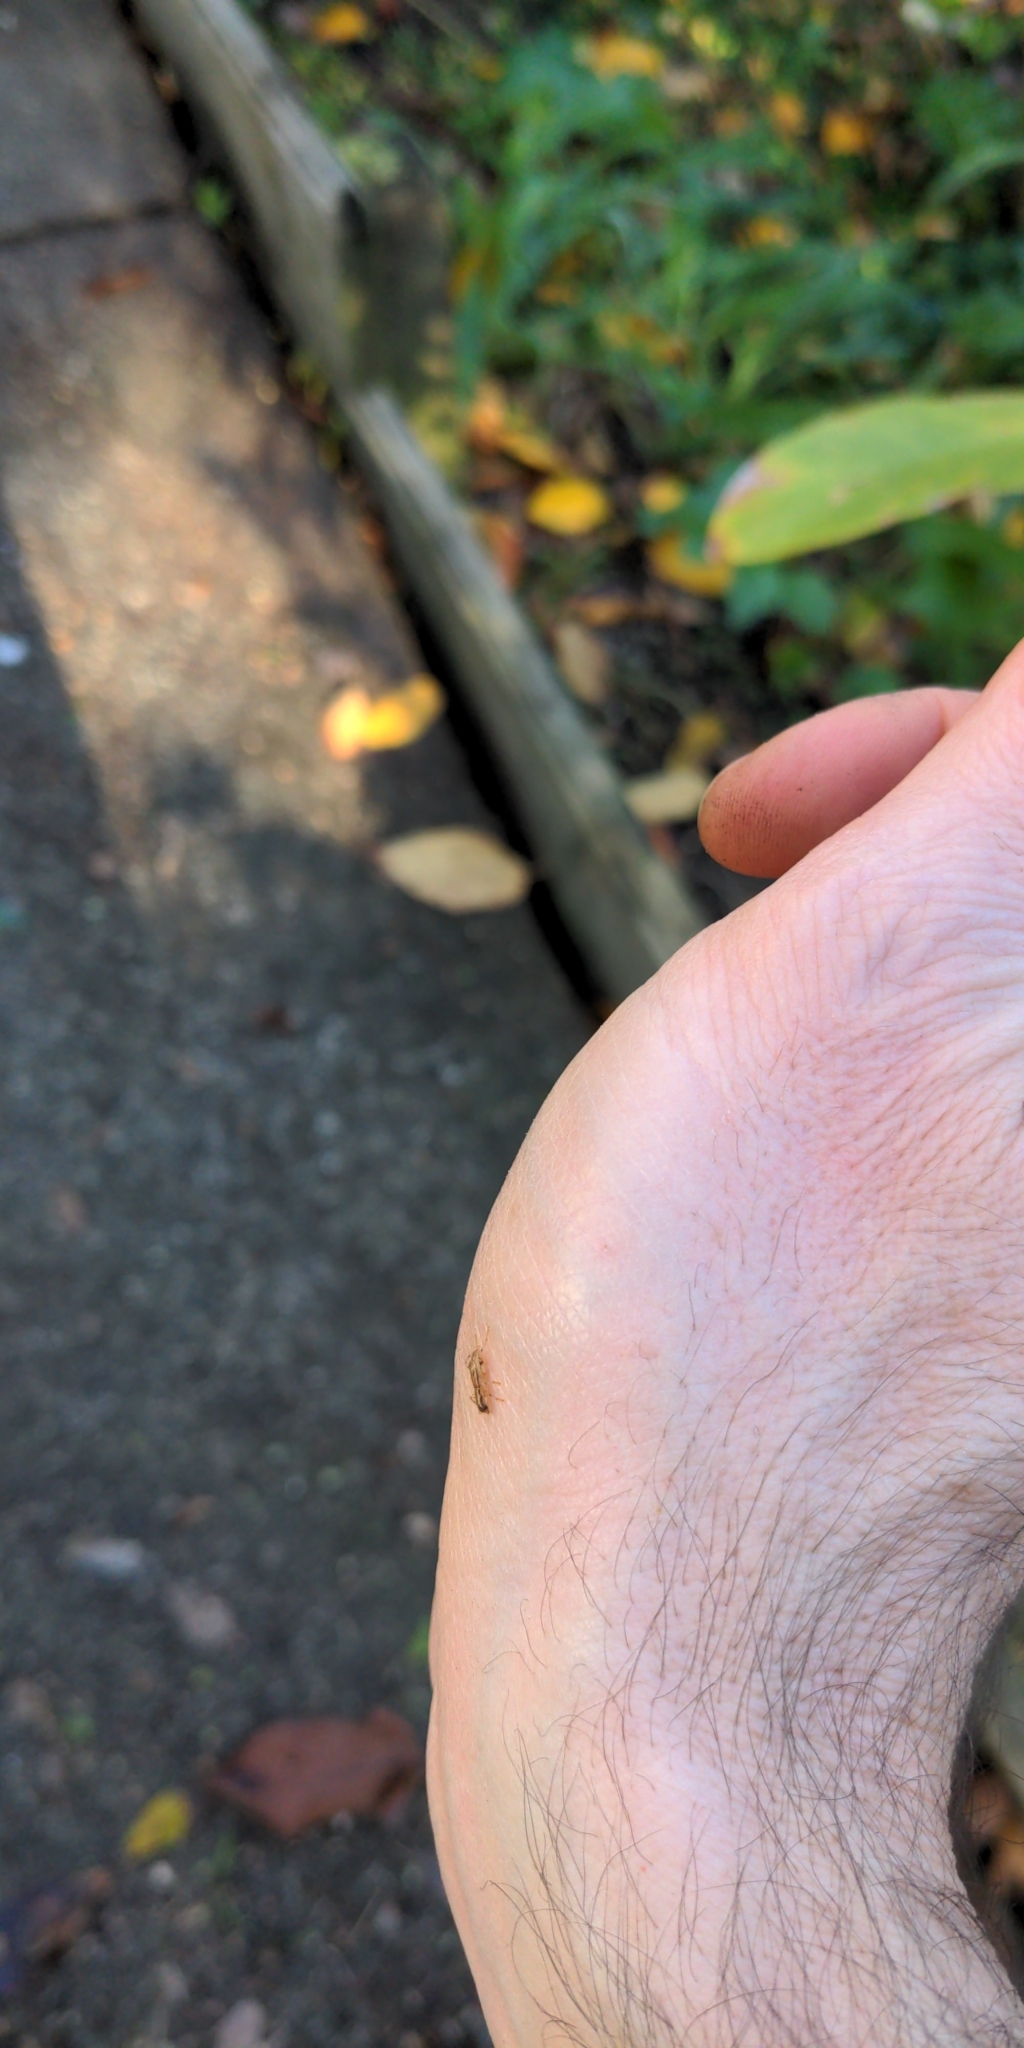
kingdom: Animalia
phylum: Arthropoda
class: Insecta
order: Coleoptera
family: Cleridae
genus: Lemidia
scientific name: Lemidia
